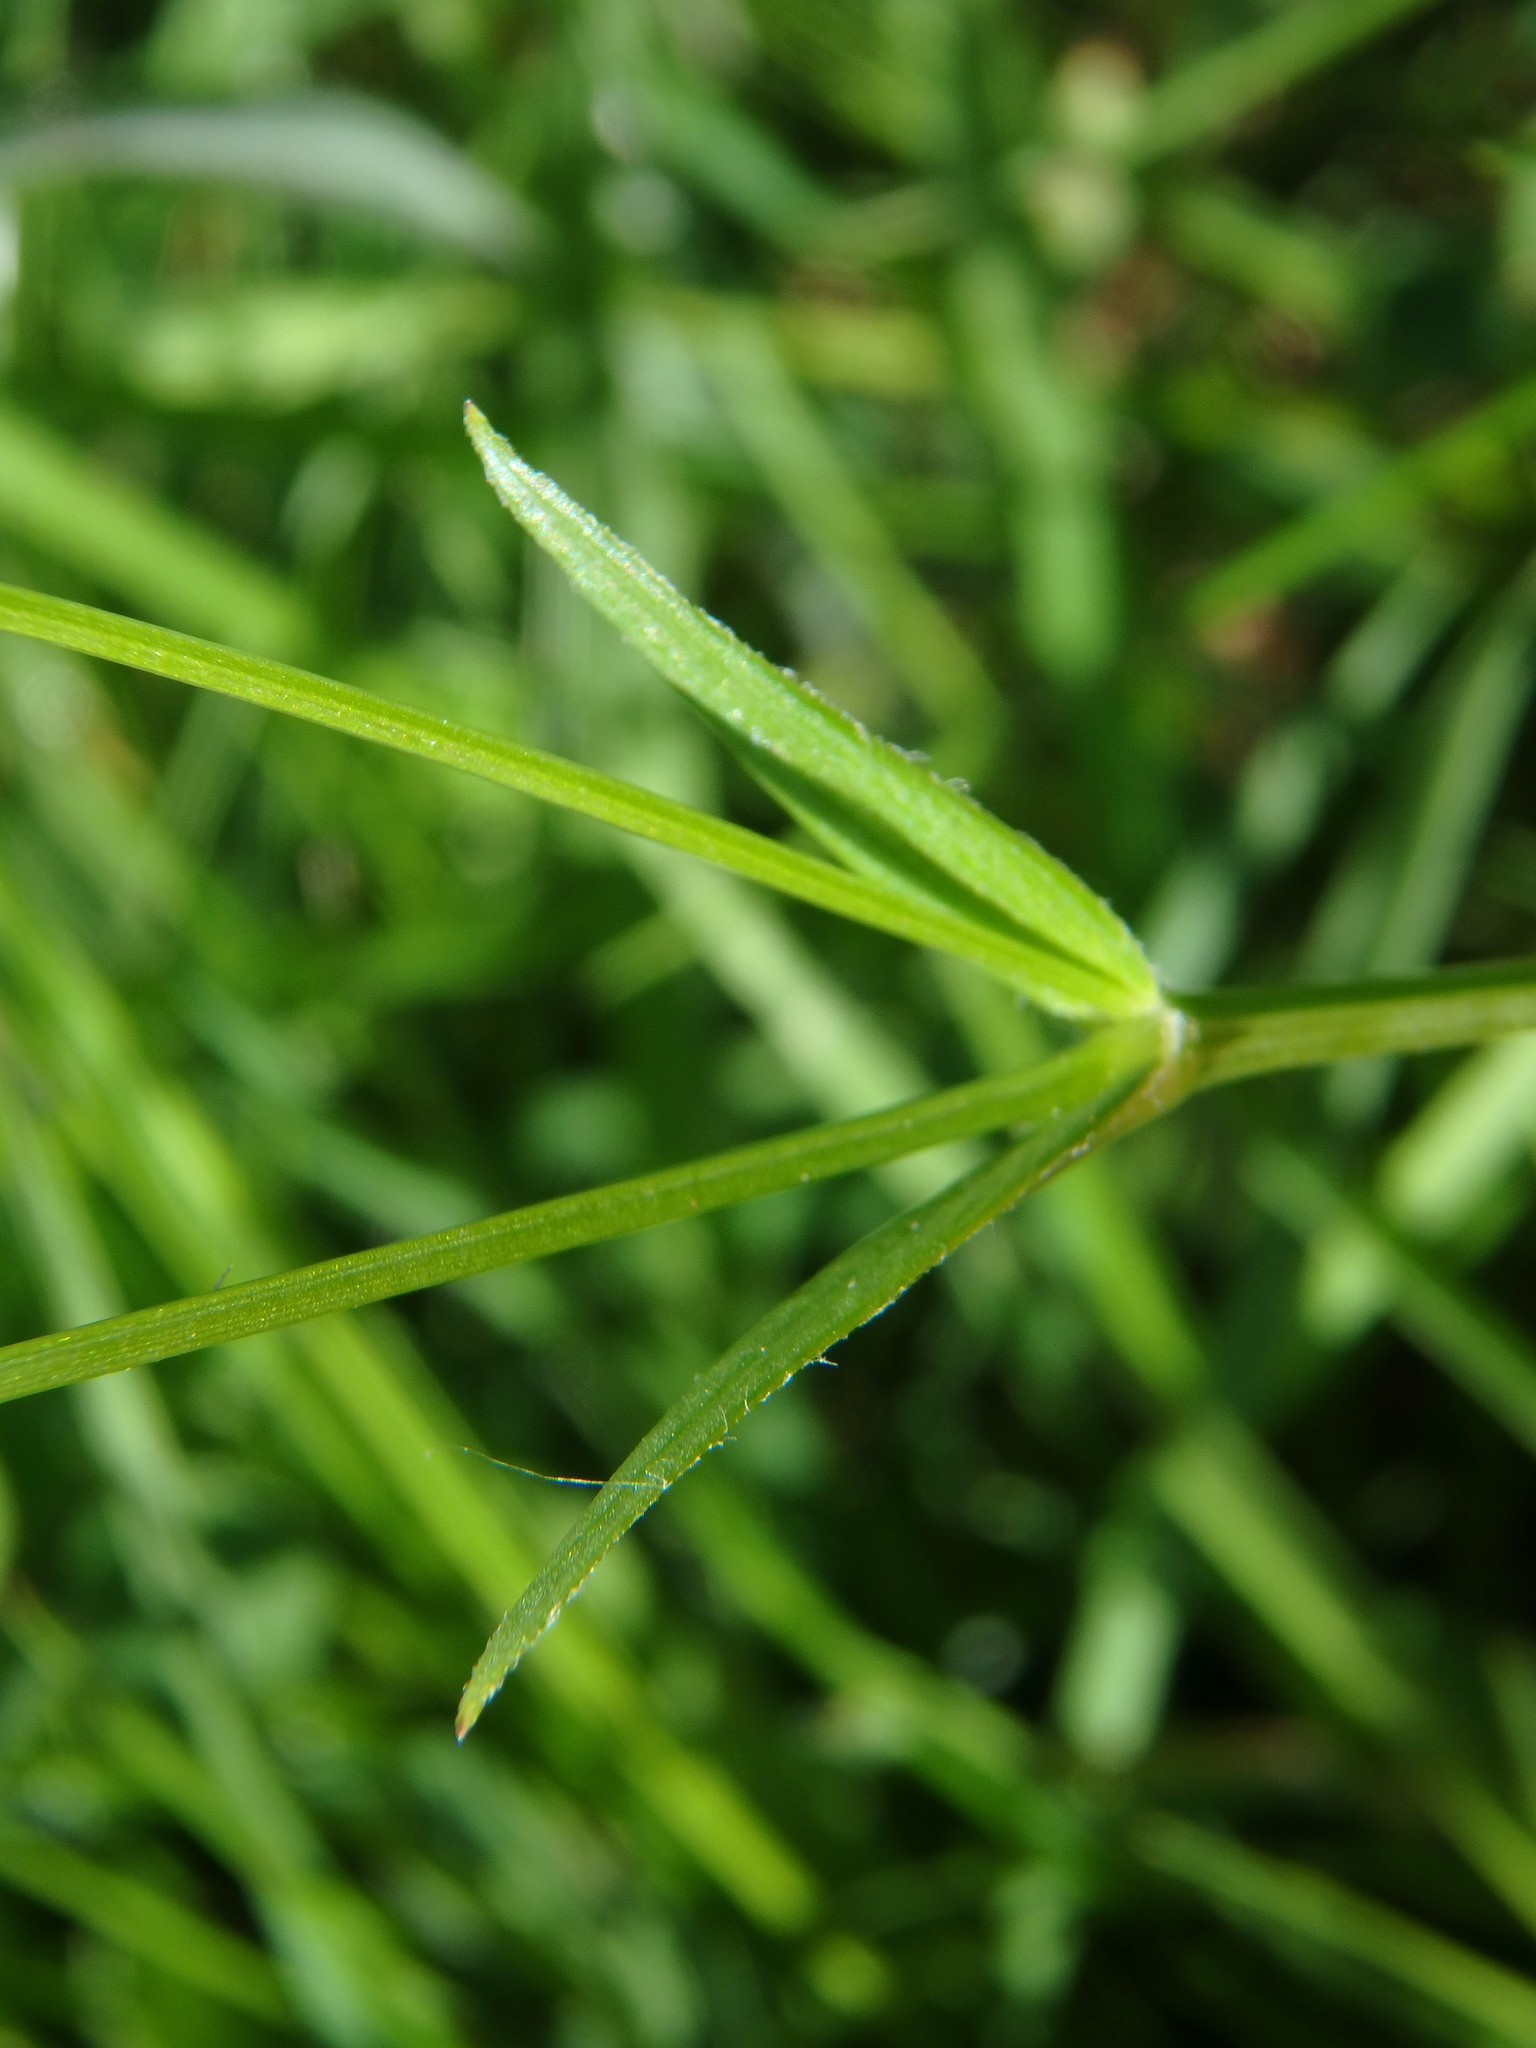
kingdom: Plantae
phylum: Tracheophyta
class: Magnoliopsida
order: Caryophyllales
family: Caryophyllaceae
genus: Stellaria
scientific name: Stellaria graminea
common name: Grass-like starwort
